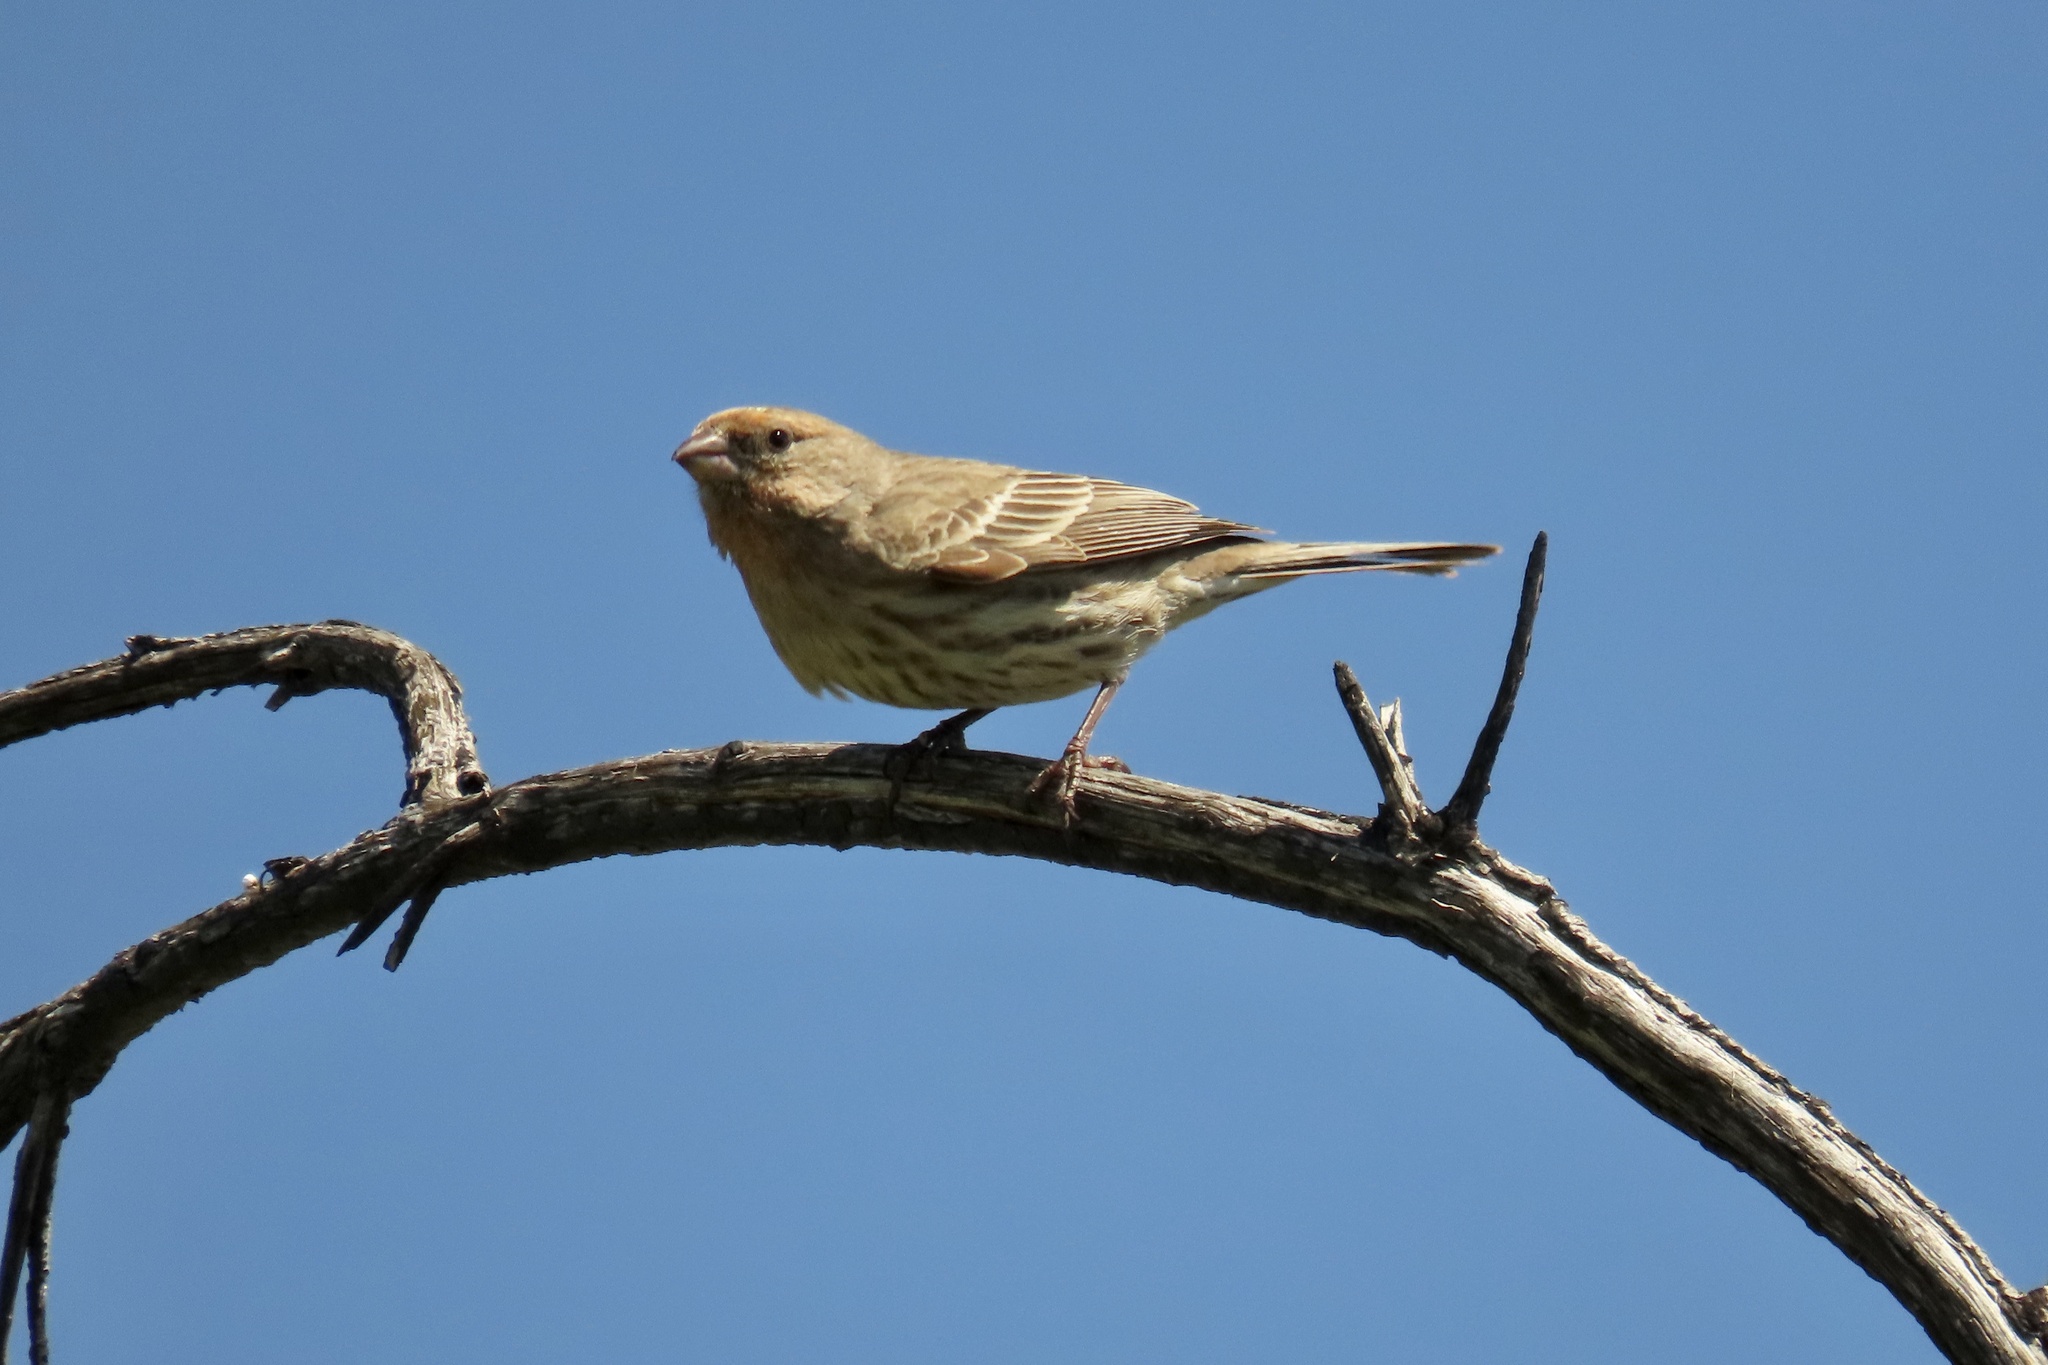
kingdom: Animalia
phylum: Chordata
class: Aves
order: Passeriformes
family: Fringillidae
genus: Haemorhous
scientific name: Haemorhous mexicanus
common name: House finch
